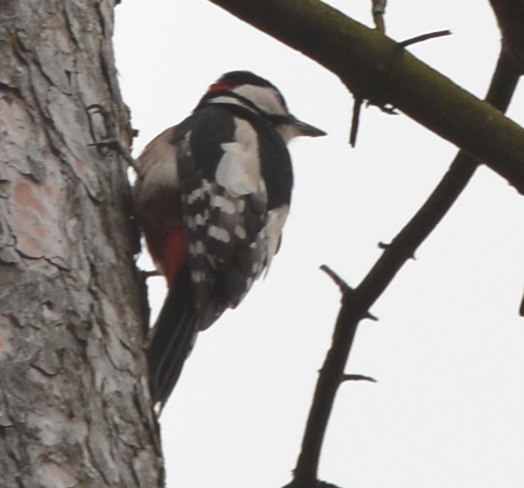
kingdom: Animalia
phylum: Chordata
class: Aves
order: Piciformes
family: Picidae
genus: Dendrocopos
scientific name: Dendrocopos major
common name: Great spotted woodpecker
